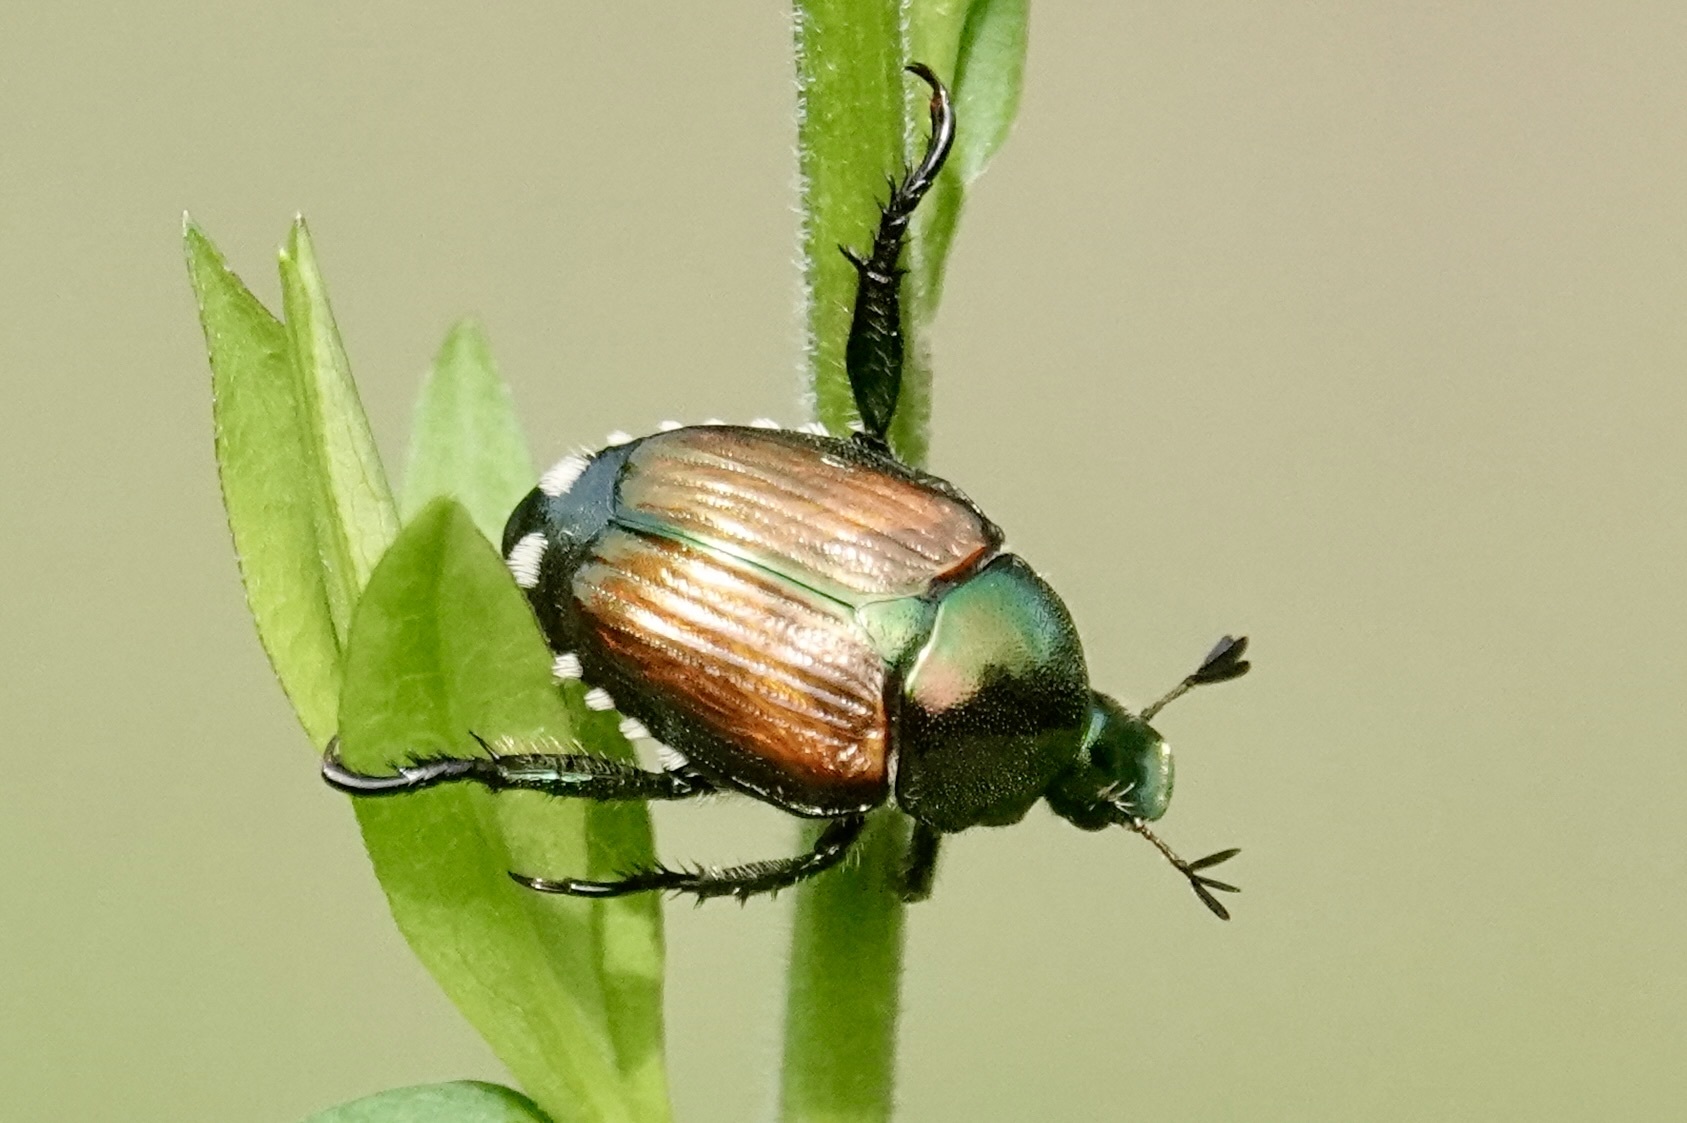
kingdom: Animalia
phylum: Arthropoda
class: Insecta
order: Coleoptera
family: Scarabaeidae
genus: Popillia
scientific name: Popillia japonica
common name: Japanese beetle
